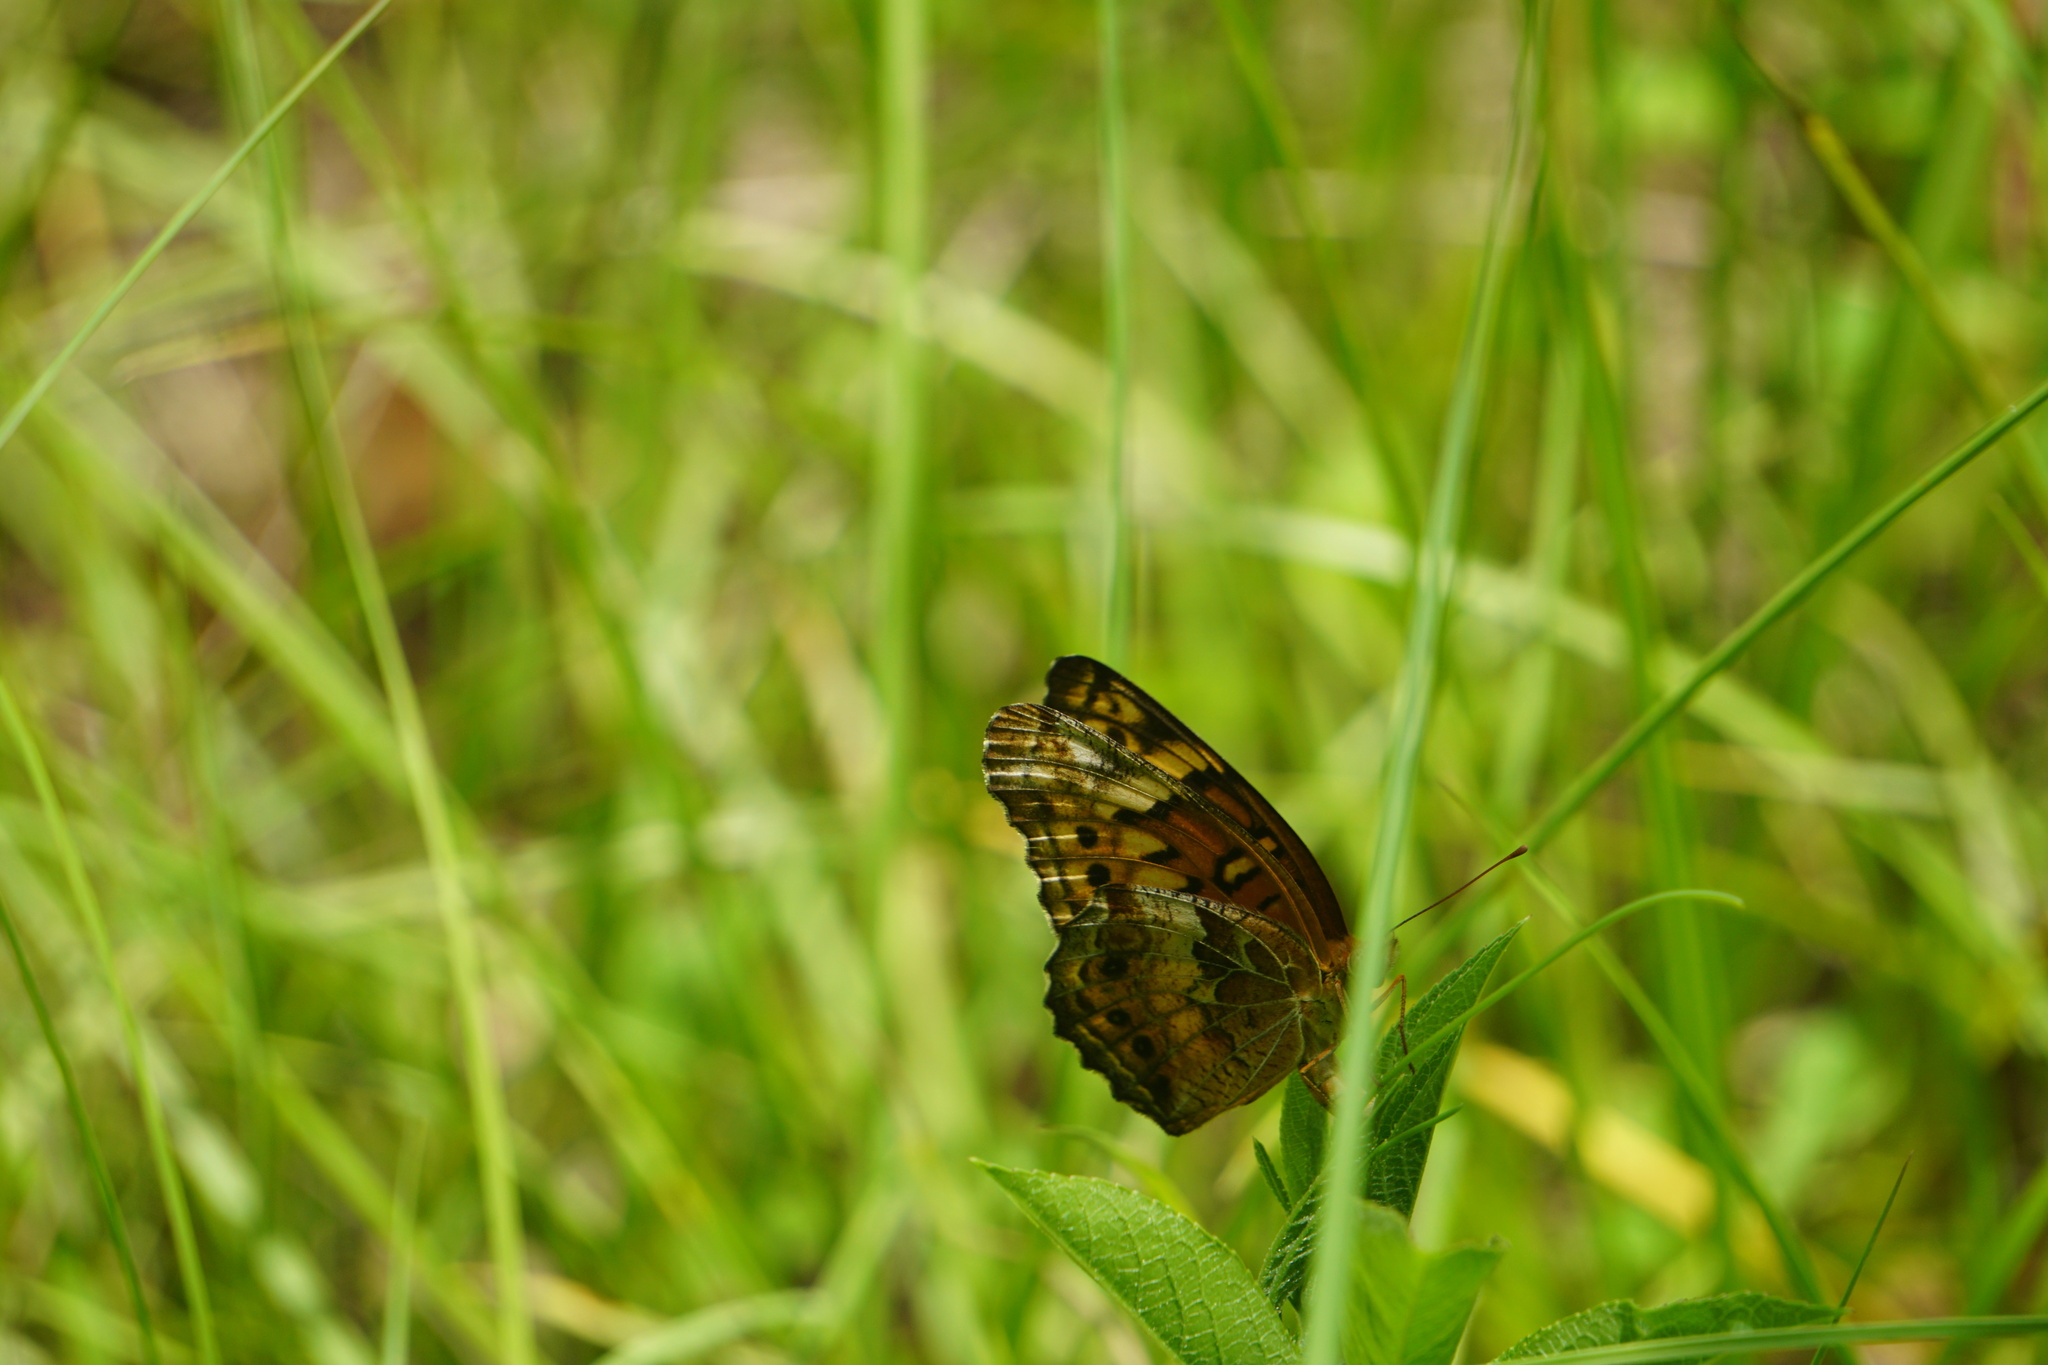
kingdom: Animalia
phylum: Arthropoda
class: Insecta
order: Lepidoptera
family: Nymphalidae
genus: Euptoieta
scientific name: Euptoieta claudia
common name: Variegated fritillary
